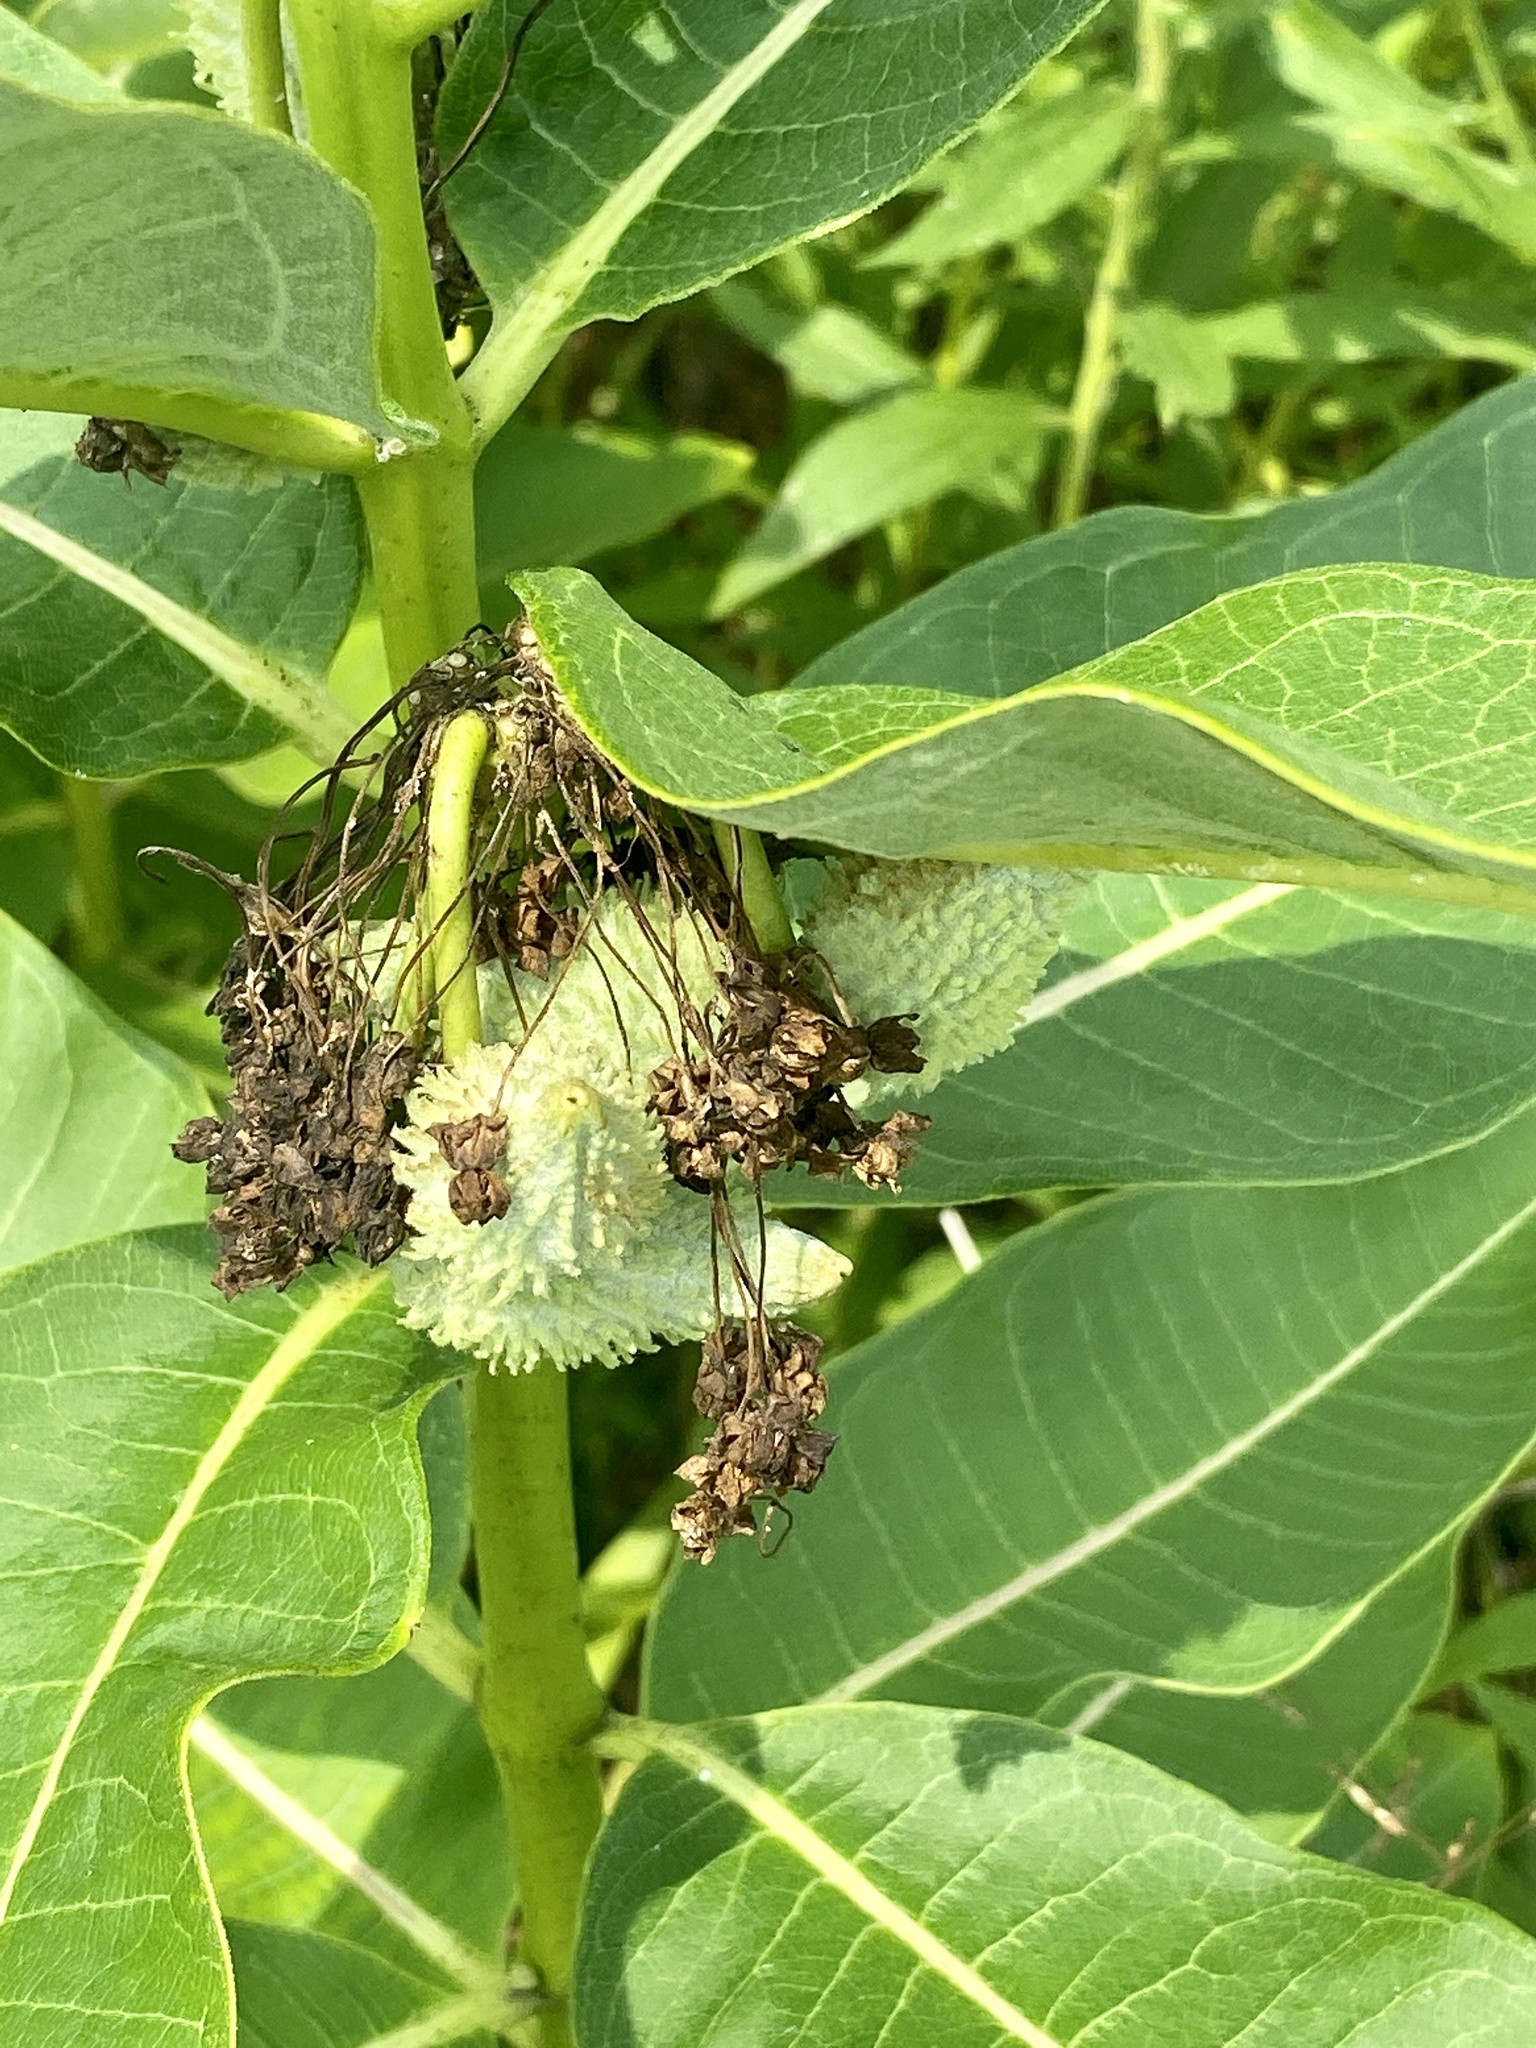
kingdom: Plantae
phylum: Tracheophyta
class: Magnoliopsida
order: Gentianales
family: Apocynaceae
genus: Asclepias
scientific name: Asclepias syriaca
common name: Common milkweed
